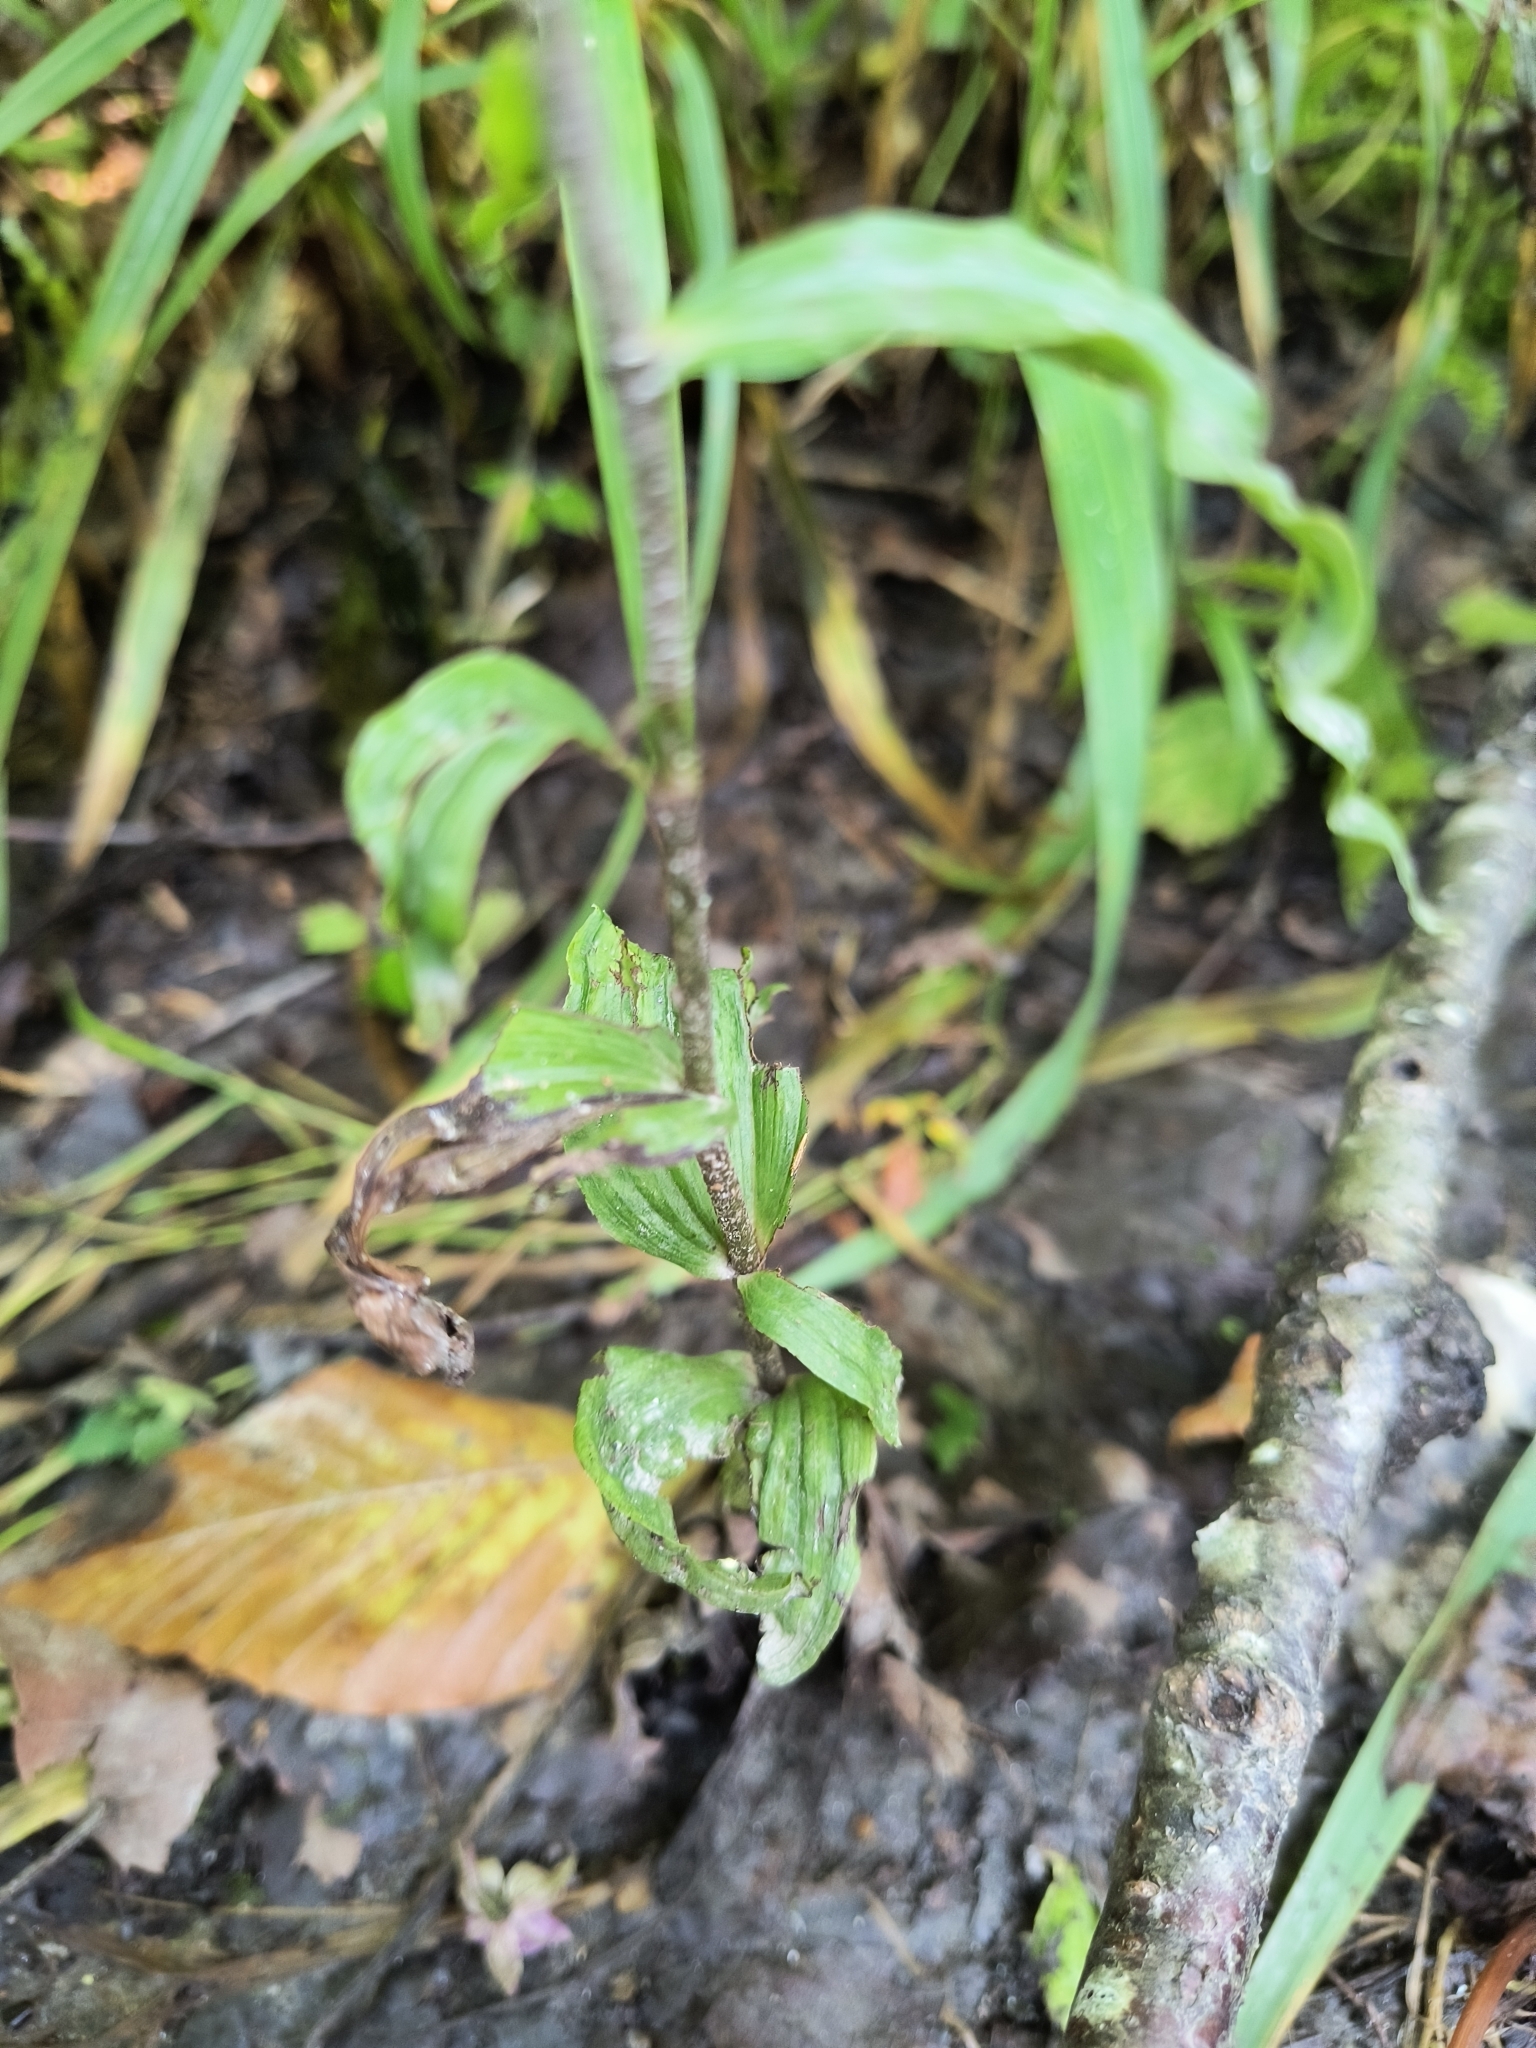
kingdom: Plantae
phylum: Tracheophyta
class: Liliopsida
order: Asparagales
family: Orchidaceae
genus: Epipactis
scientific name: Epipactis helleborine
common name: Broad-leaved helleborine
